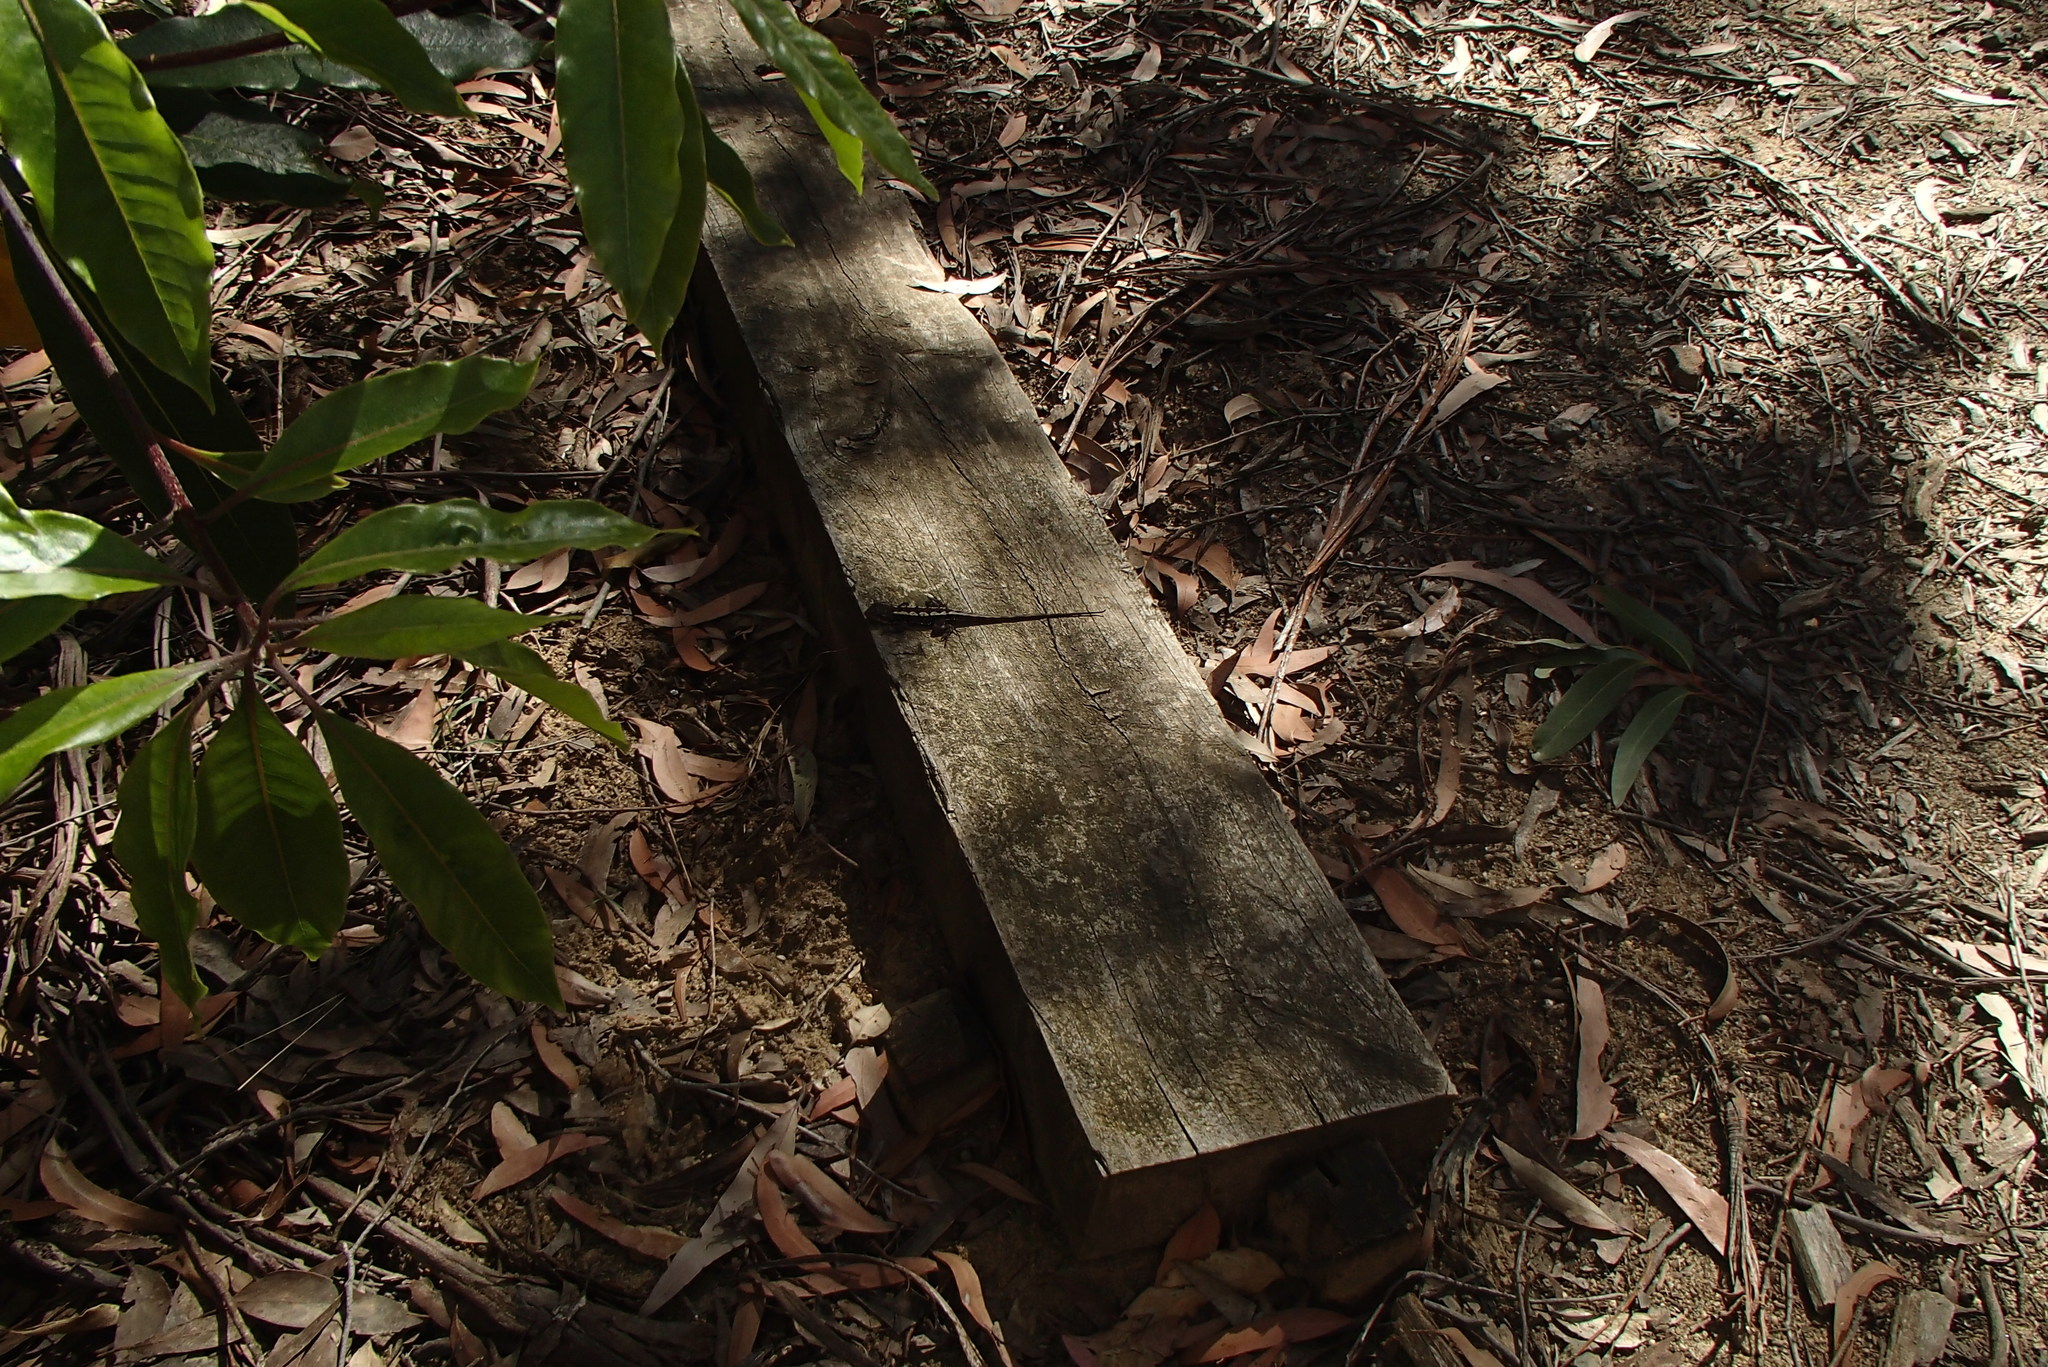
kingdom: Animalia
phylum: Chordata
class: Squamata
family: Agamidae
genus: Rankinia
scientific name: Rankinia diemensis
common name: Mountain dragon
